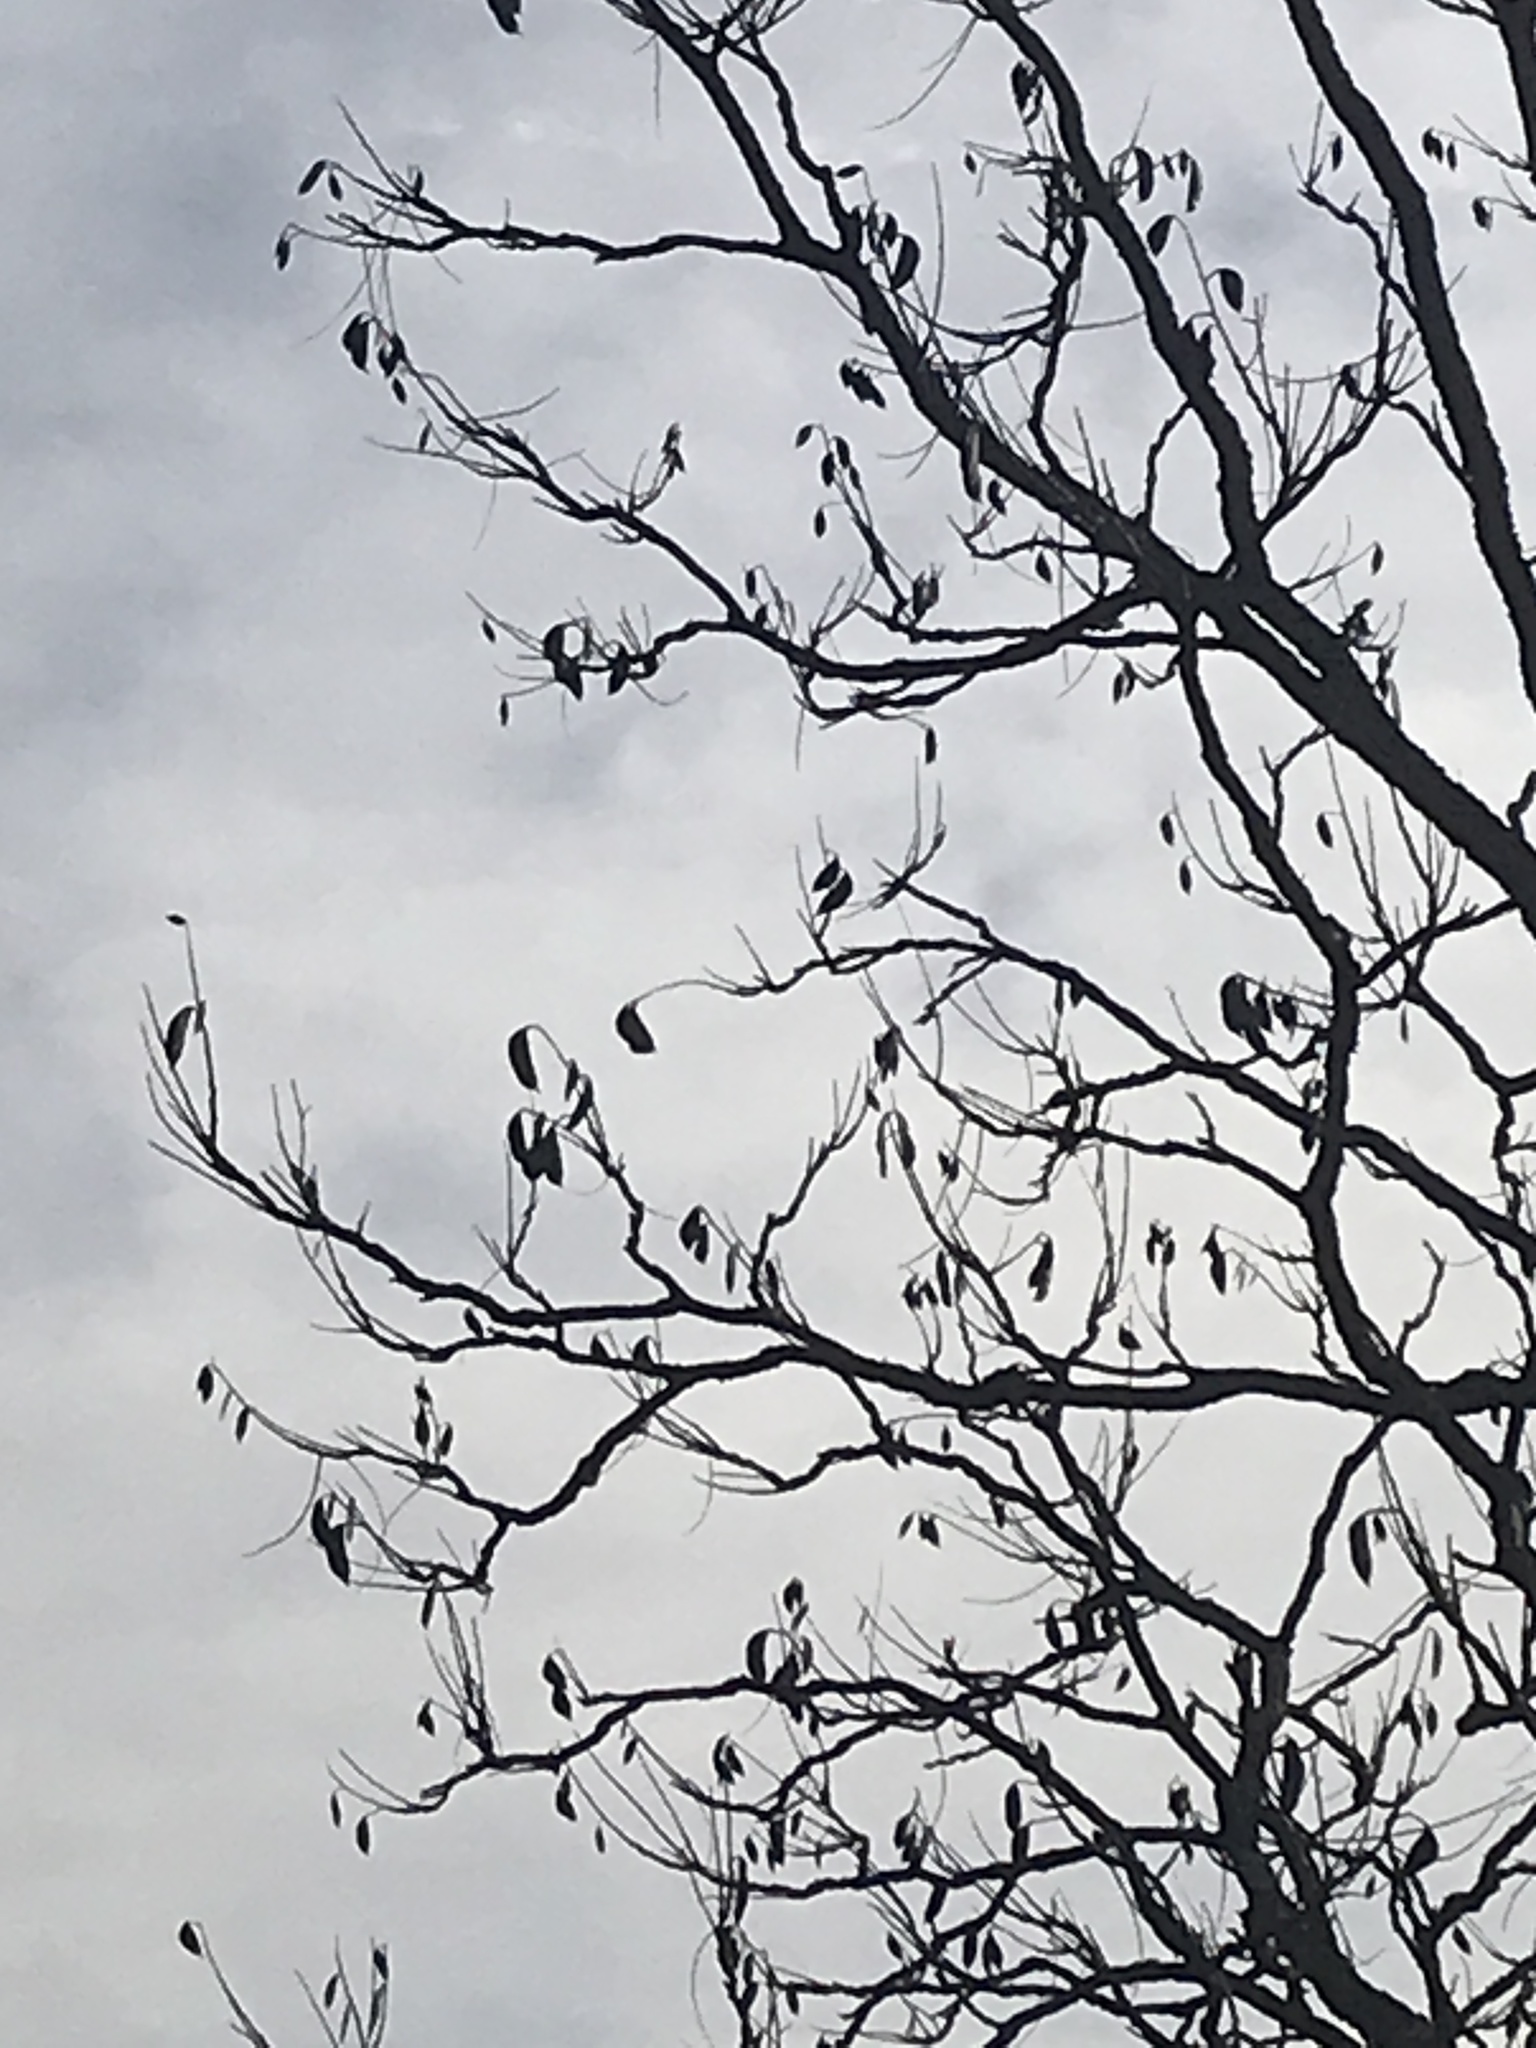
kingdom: Plantae
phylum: Tracheophyta
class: Magnoliopsida
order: Fabales
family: Fabaceae
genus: Gymnocladus
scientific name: Gymnocladus dioicus
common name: Kentucky coffee-tree
